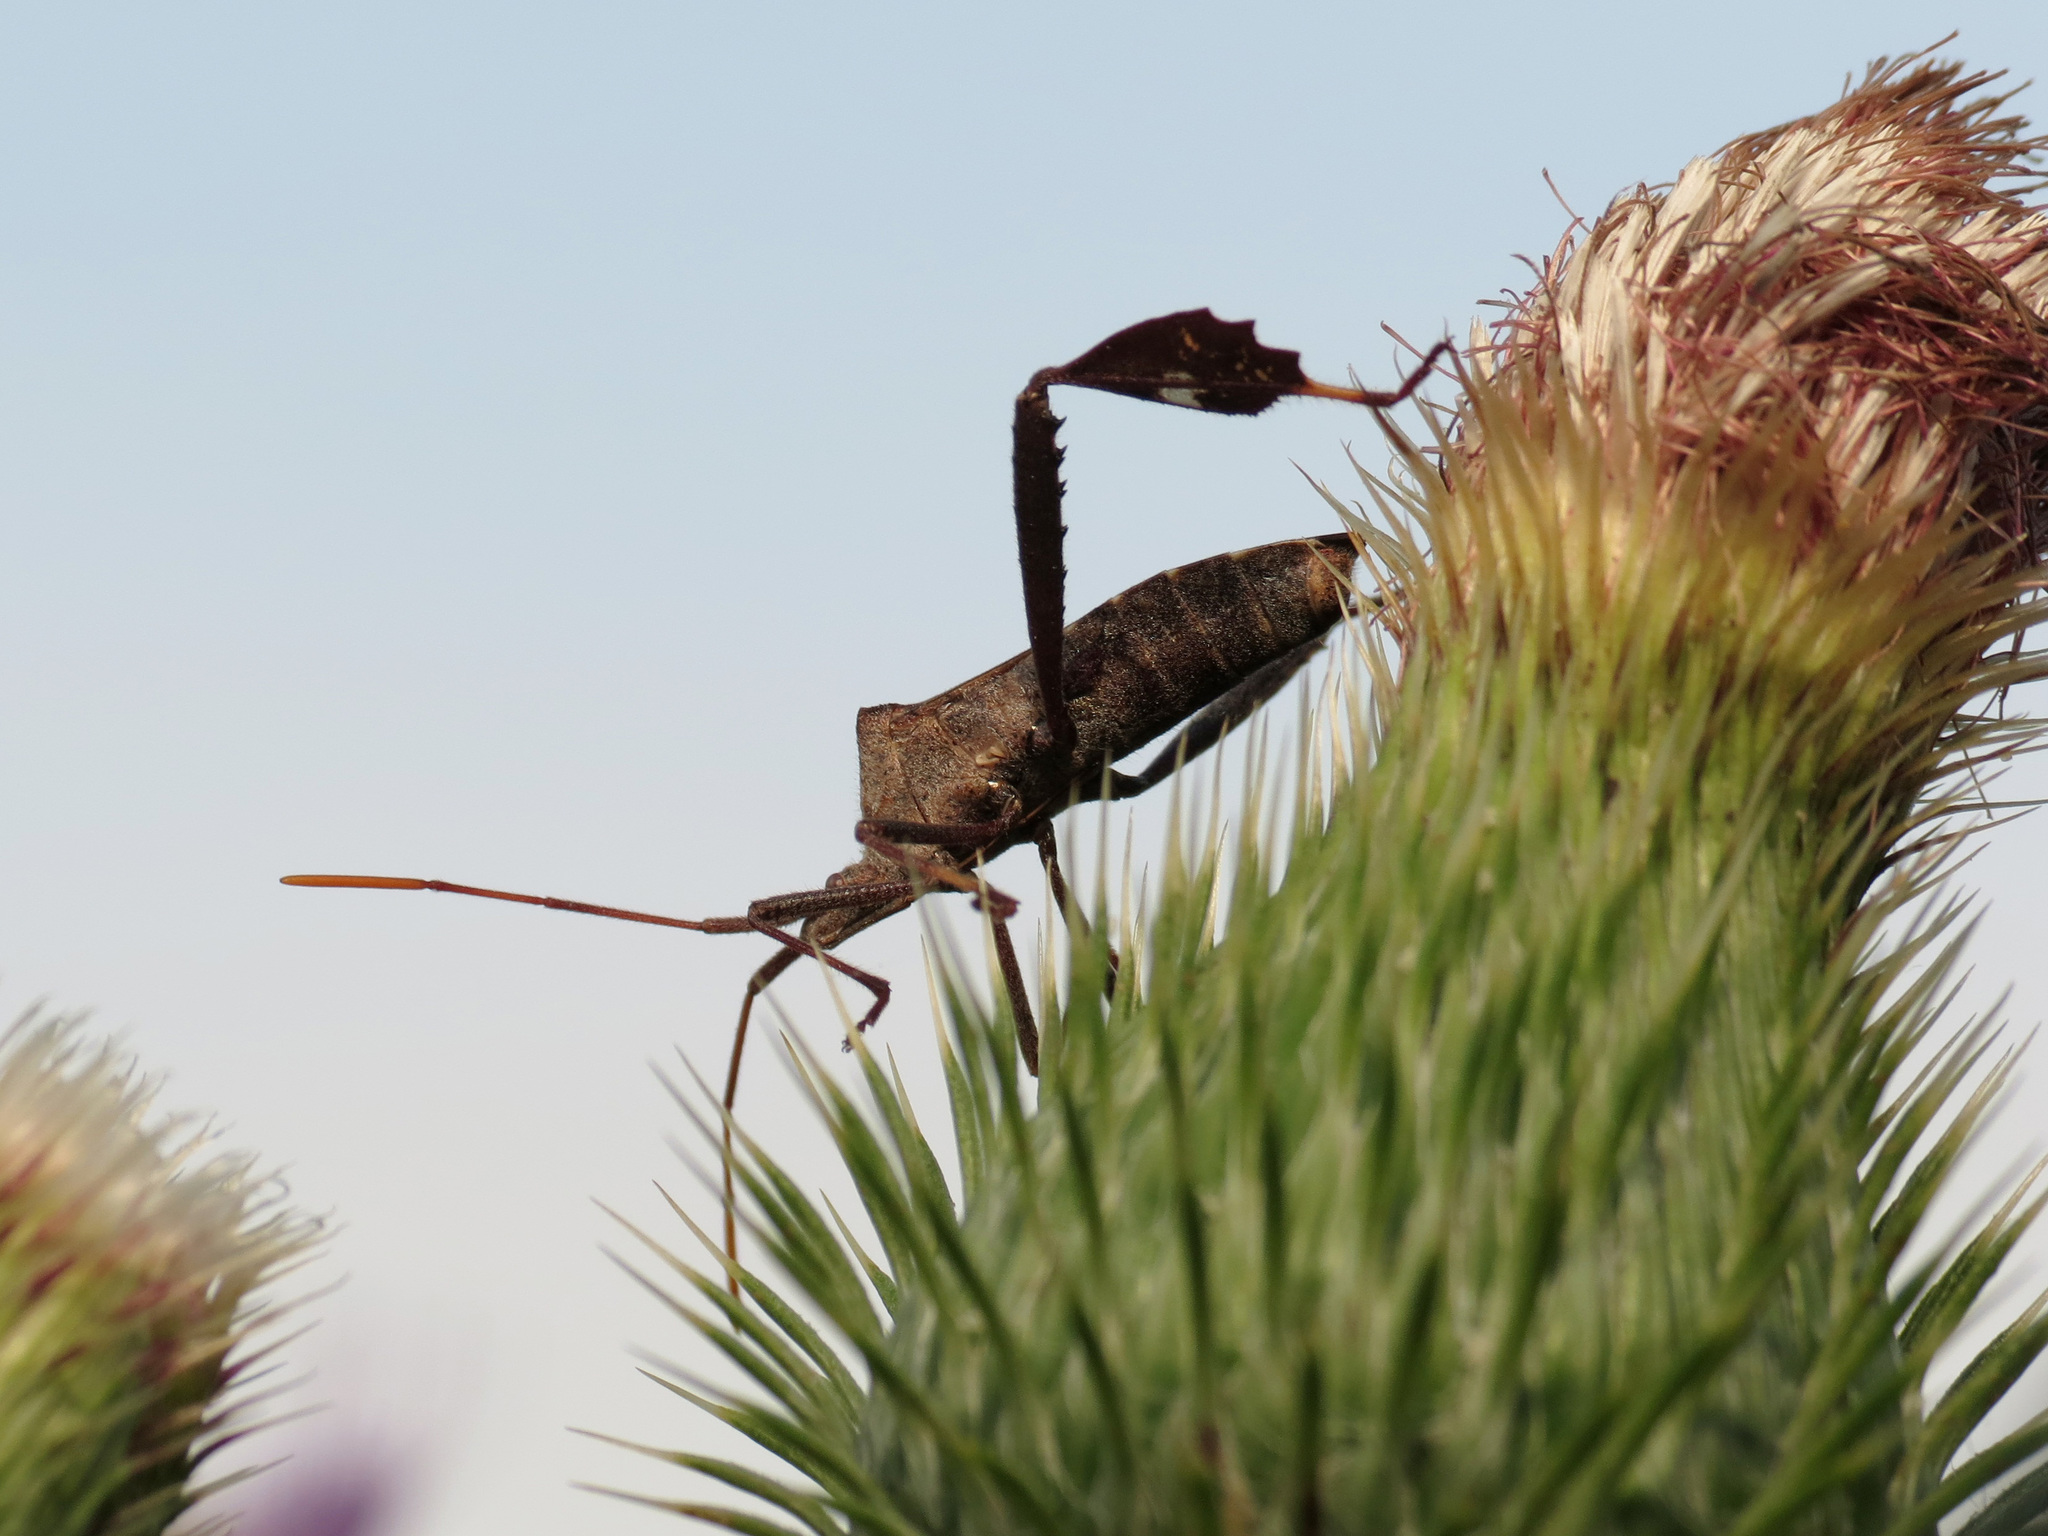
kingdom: Animalia
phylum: Arthropoda
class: Insecta
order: Hemiptera
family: Coreidae
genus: Leptoglossus
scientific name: Leptoglossus phyllopus
